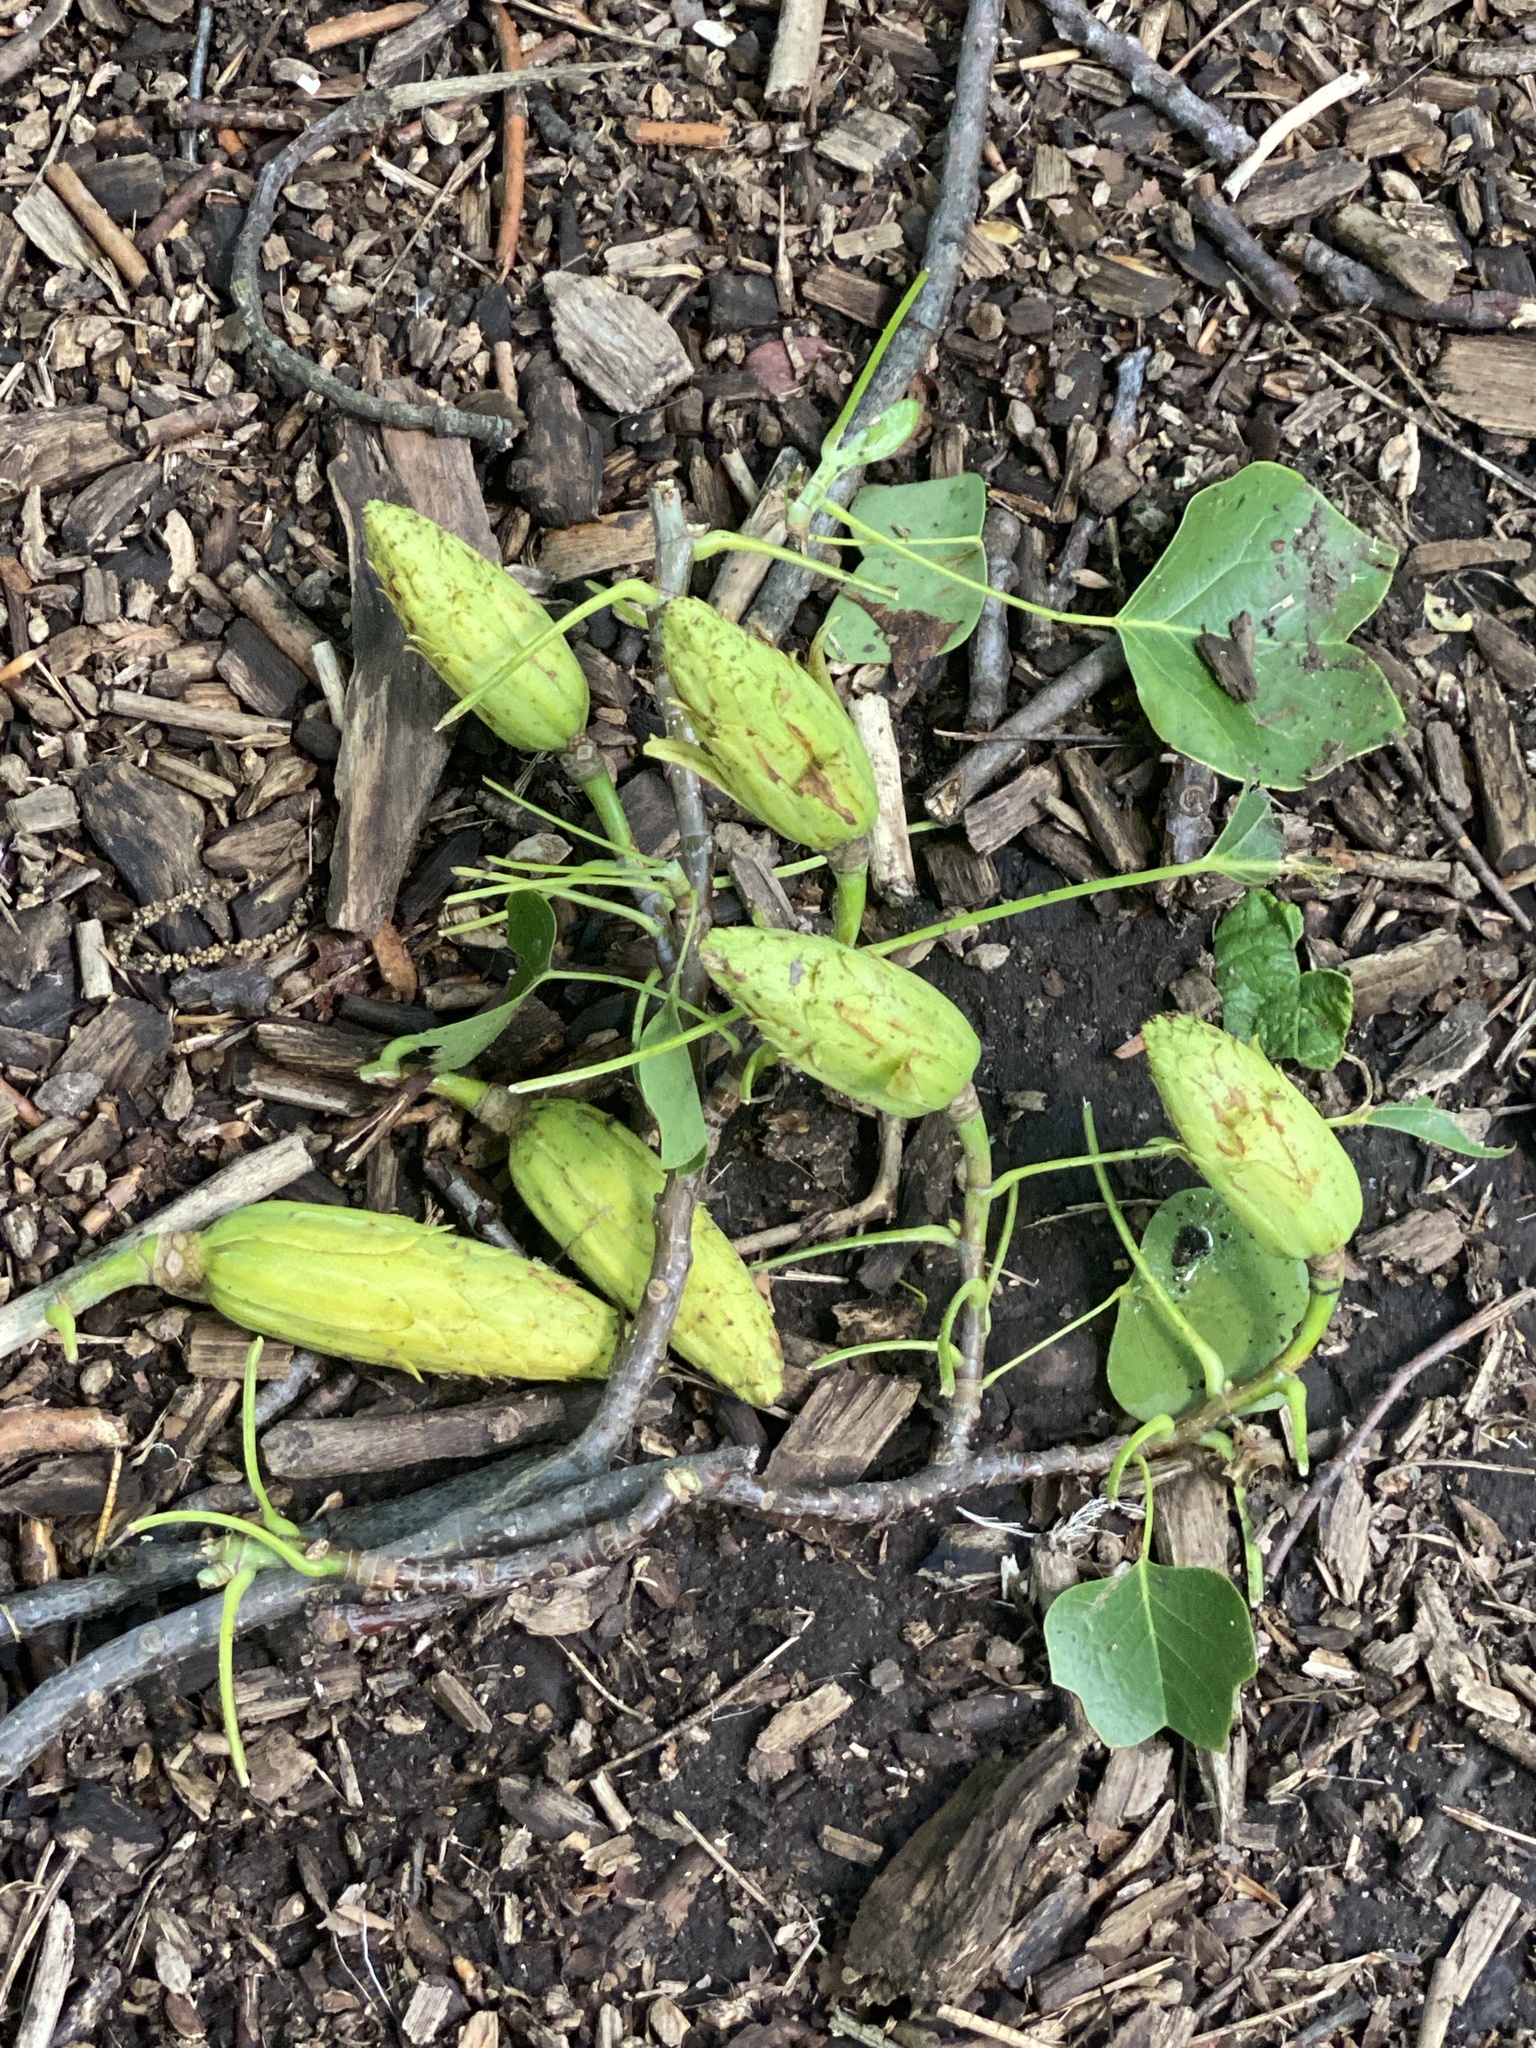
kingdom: Plantae
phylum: Tracheophyta
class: Magnoliopsida
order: Magnoliales
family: Magnoliaceae
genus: Liriodendron
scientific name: Liriodendron tulipifera
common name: Tulip tree
